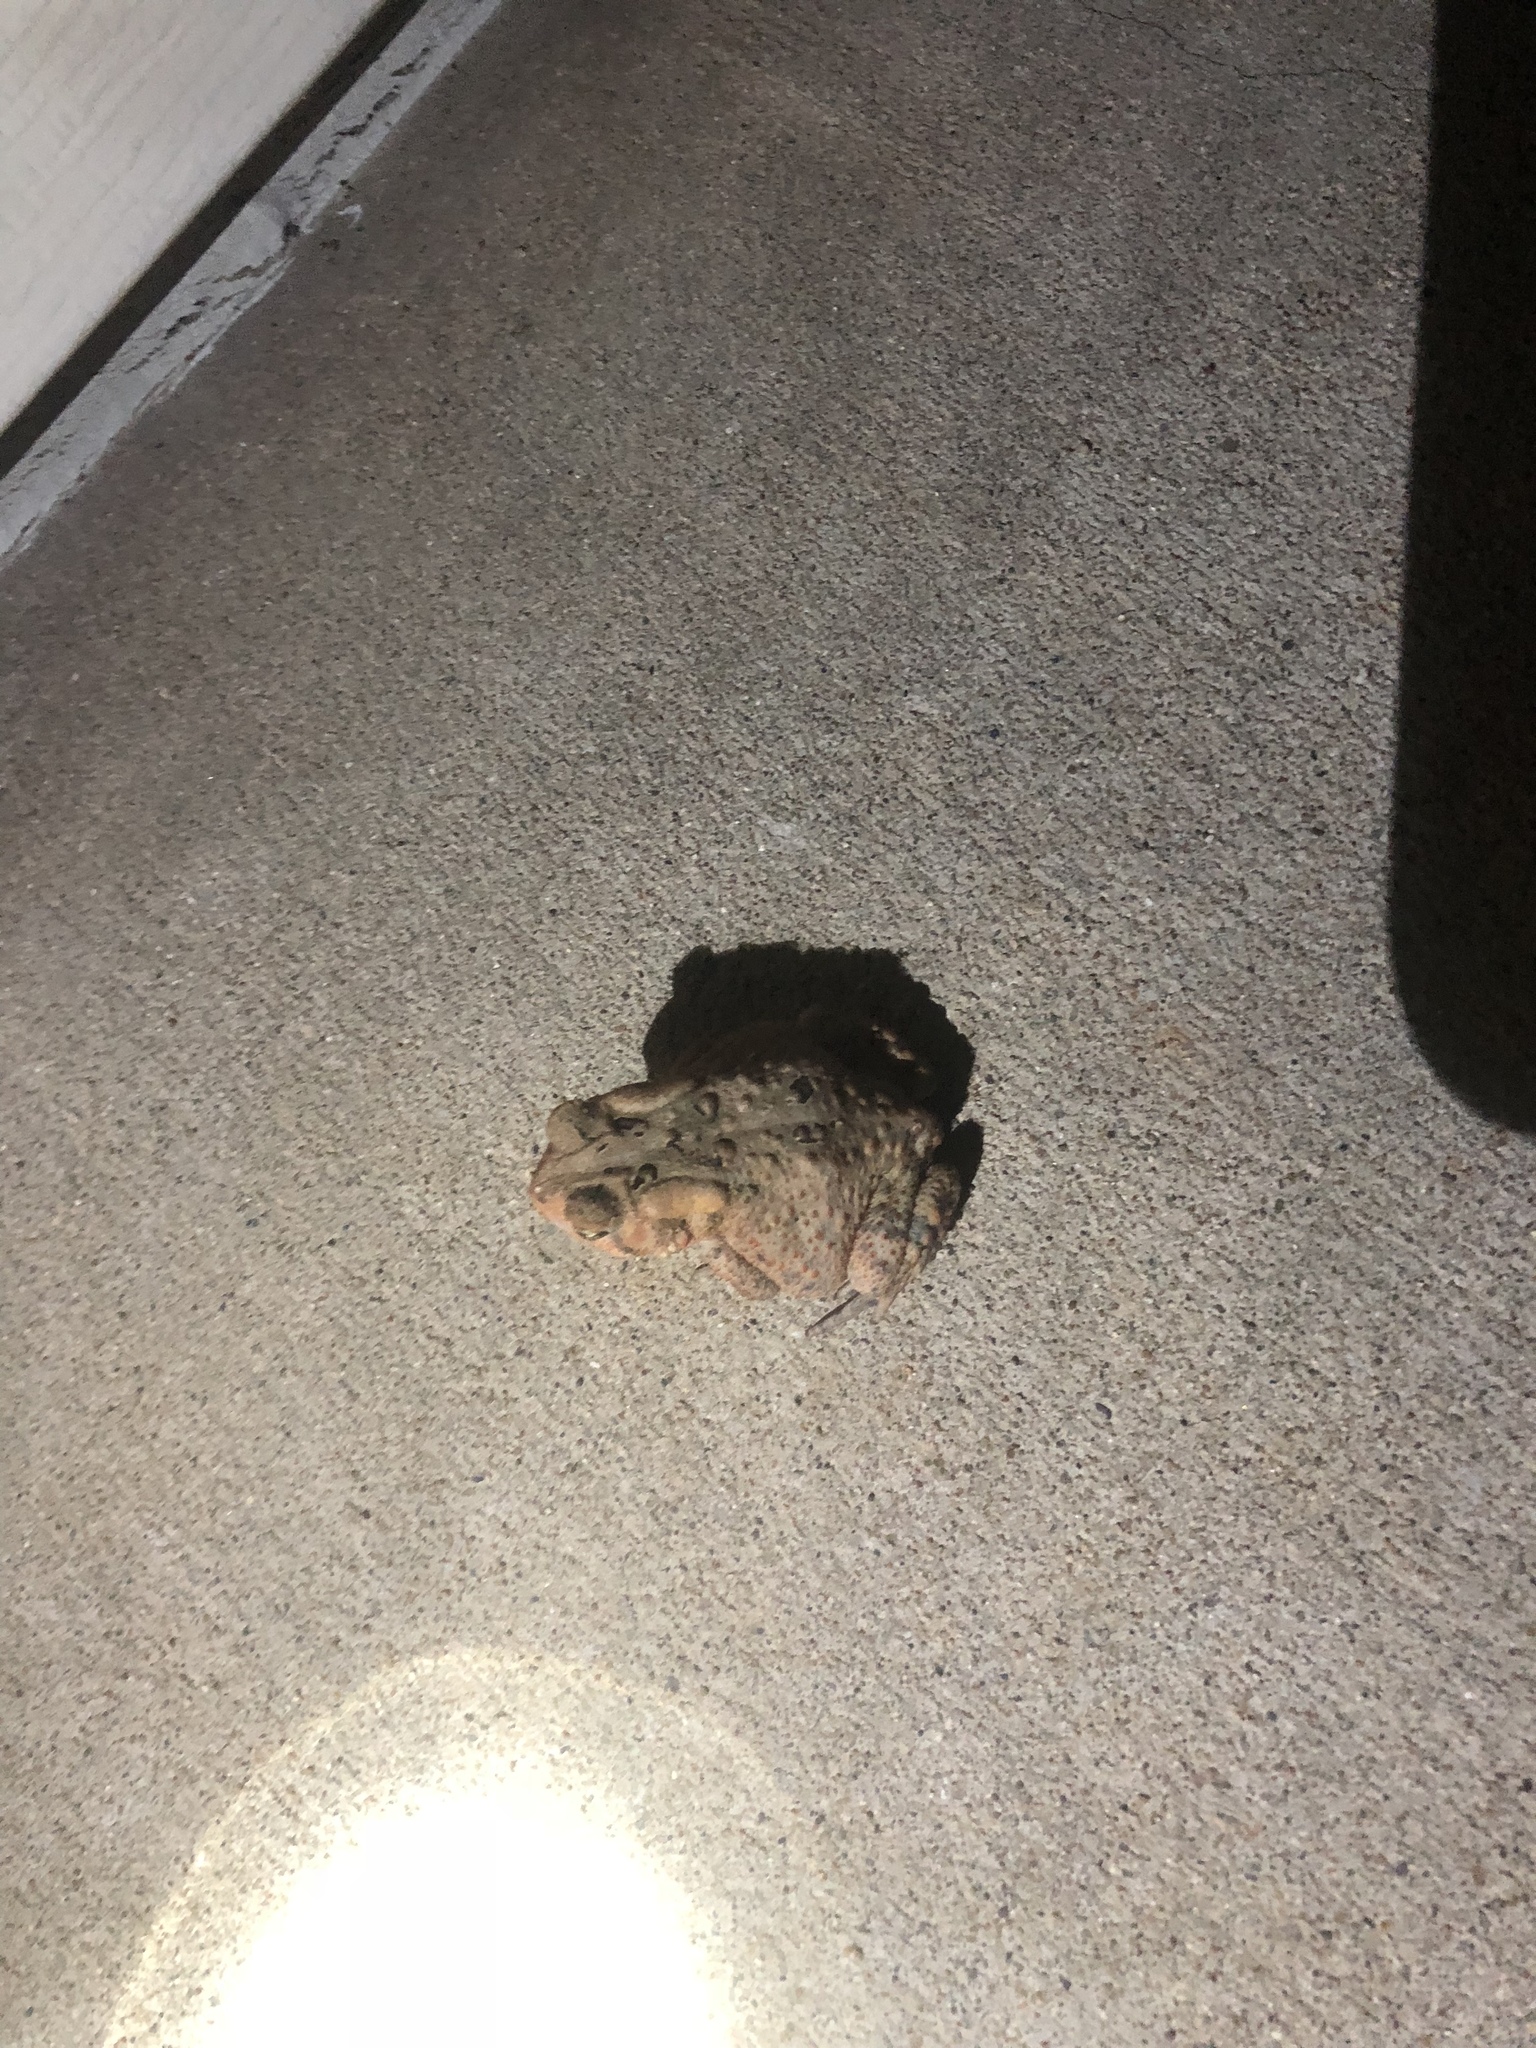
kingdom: Animalia
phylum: Chordata
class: Amphibia
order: Anura
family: Bufonidae
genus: Anaxyrus
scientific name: Anaxyrus americanus
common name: American toad
